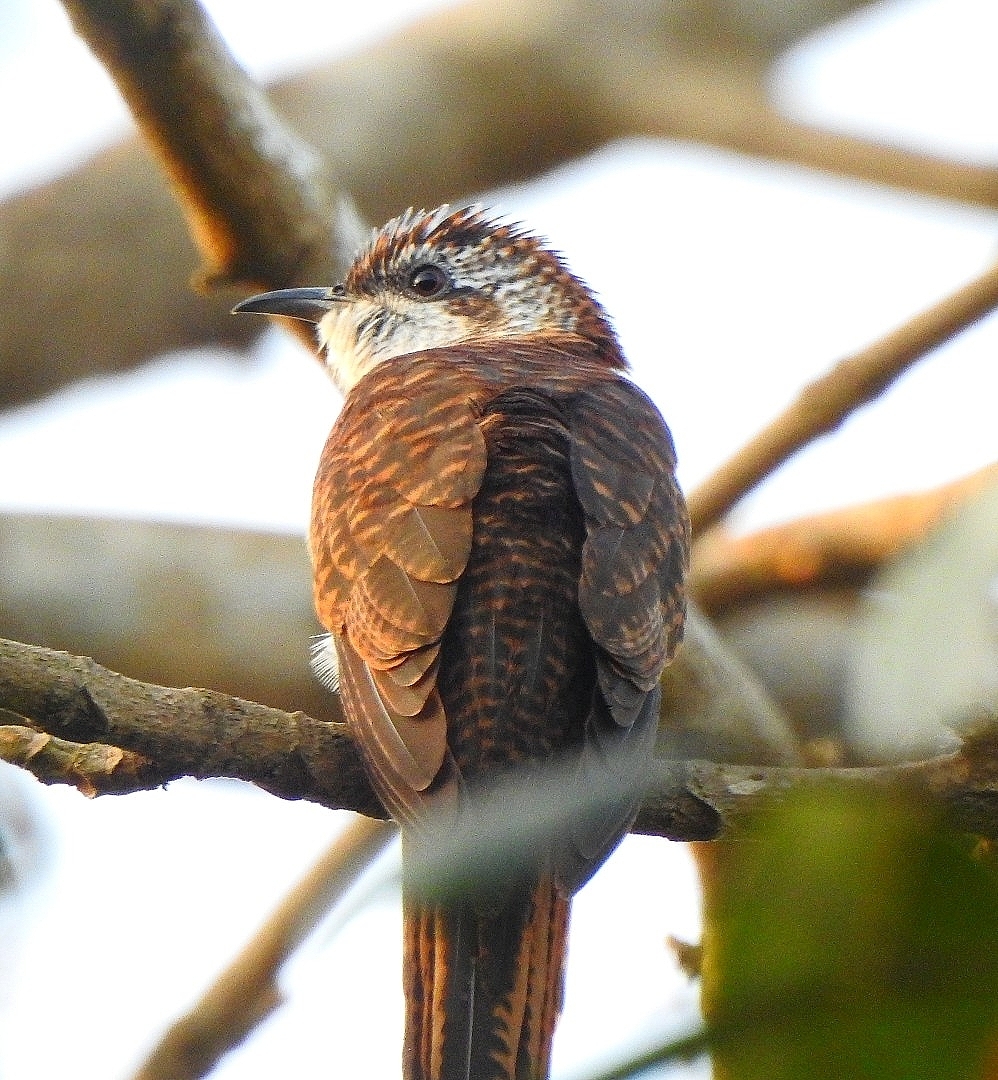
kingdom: Animalia
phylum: Chordata
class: Aves
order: Cuculiformes
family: Cuculidae
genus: Cacomantis
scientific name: Cacomantis sonneratii
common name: Banded bay cuckoo
